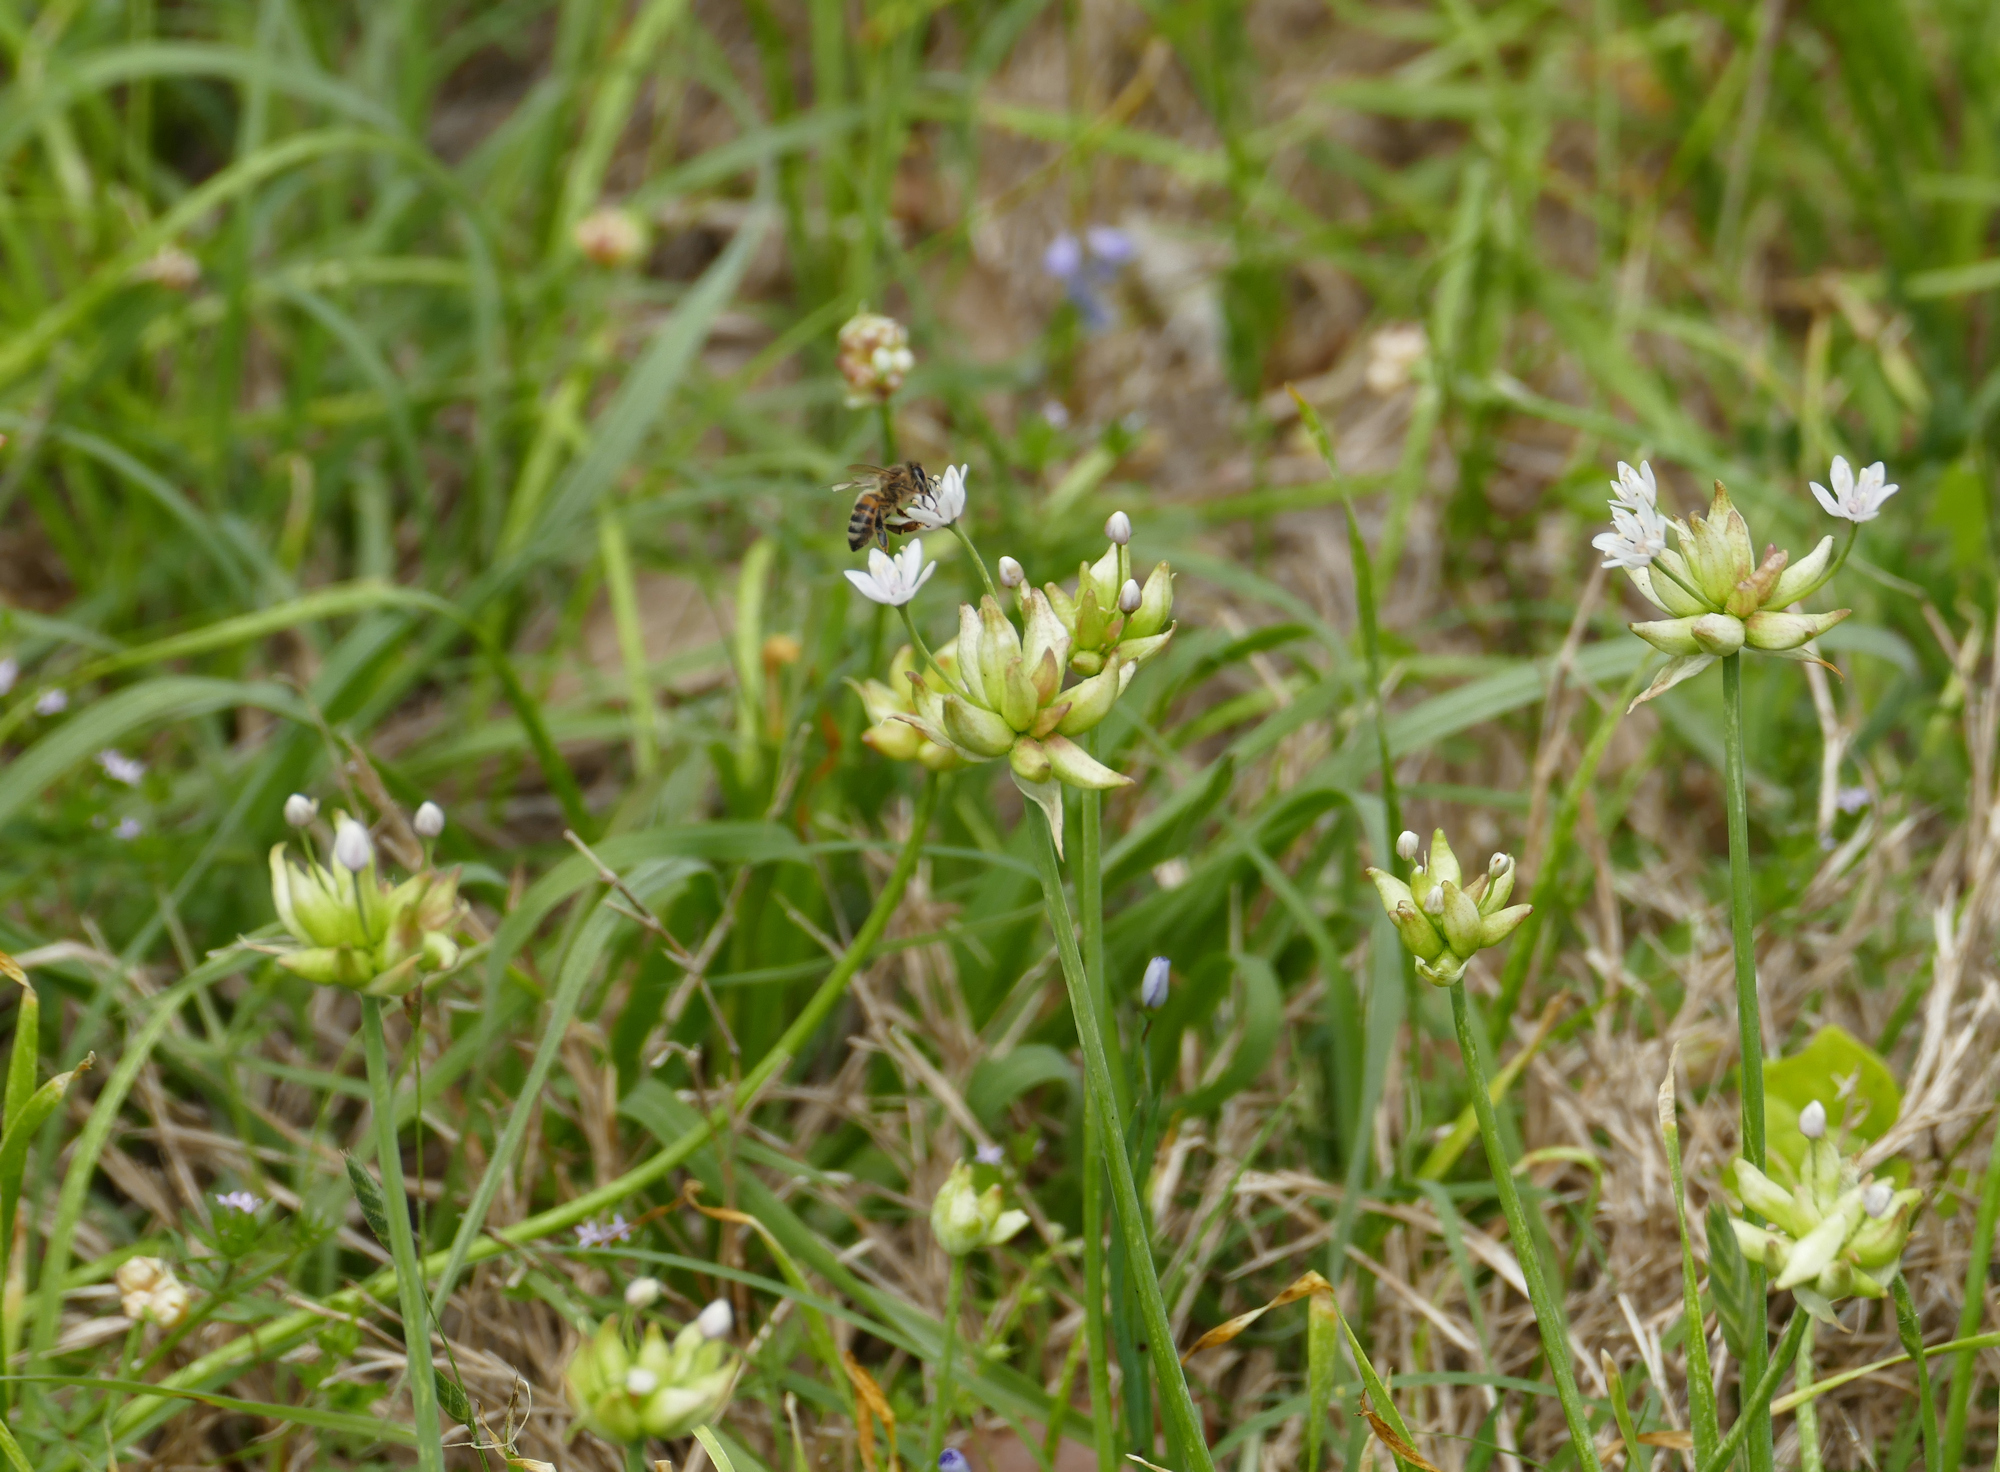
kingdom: Plantae
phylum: Tracheophyta
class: Liliopsida
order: Asparagales
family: Amaryllidaceae
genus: Allium
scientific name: Allium canadense
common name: Meadow garlic
